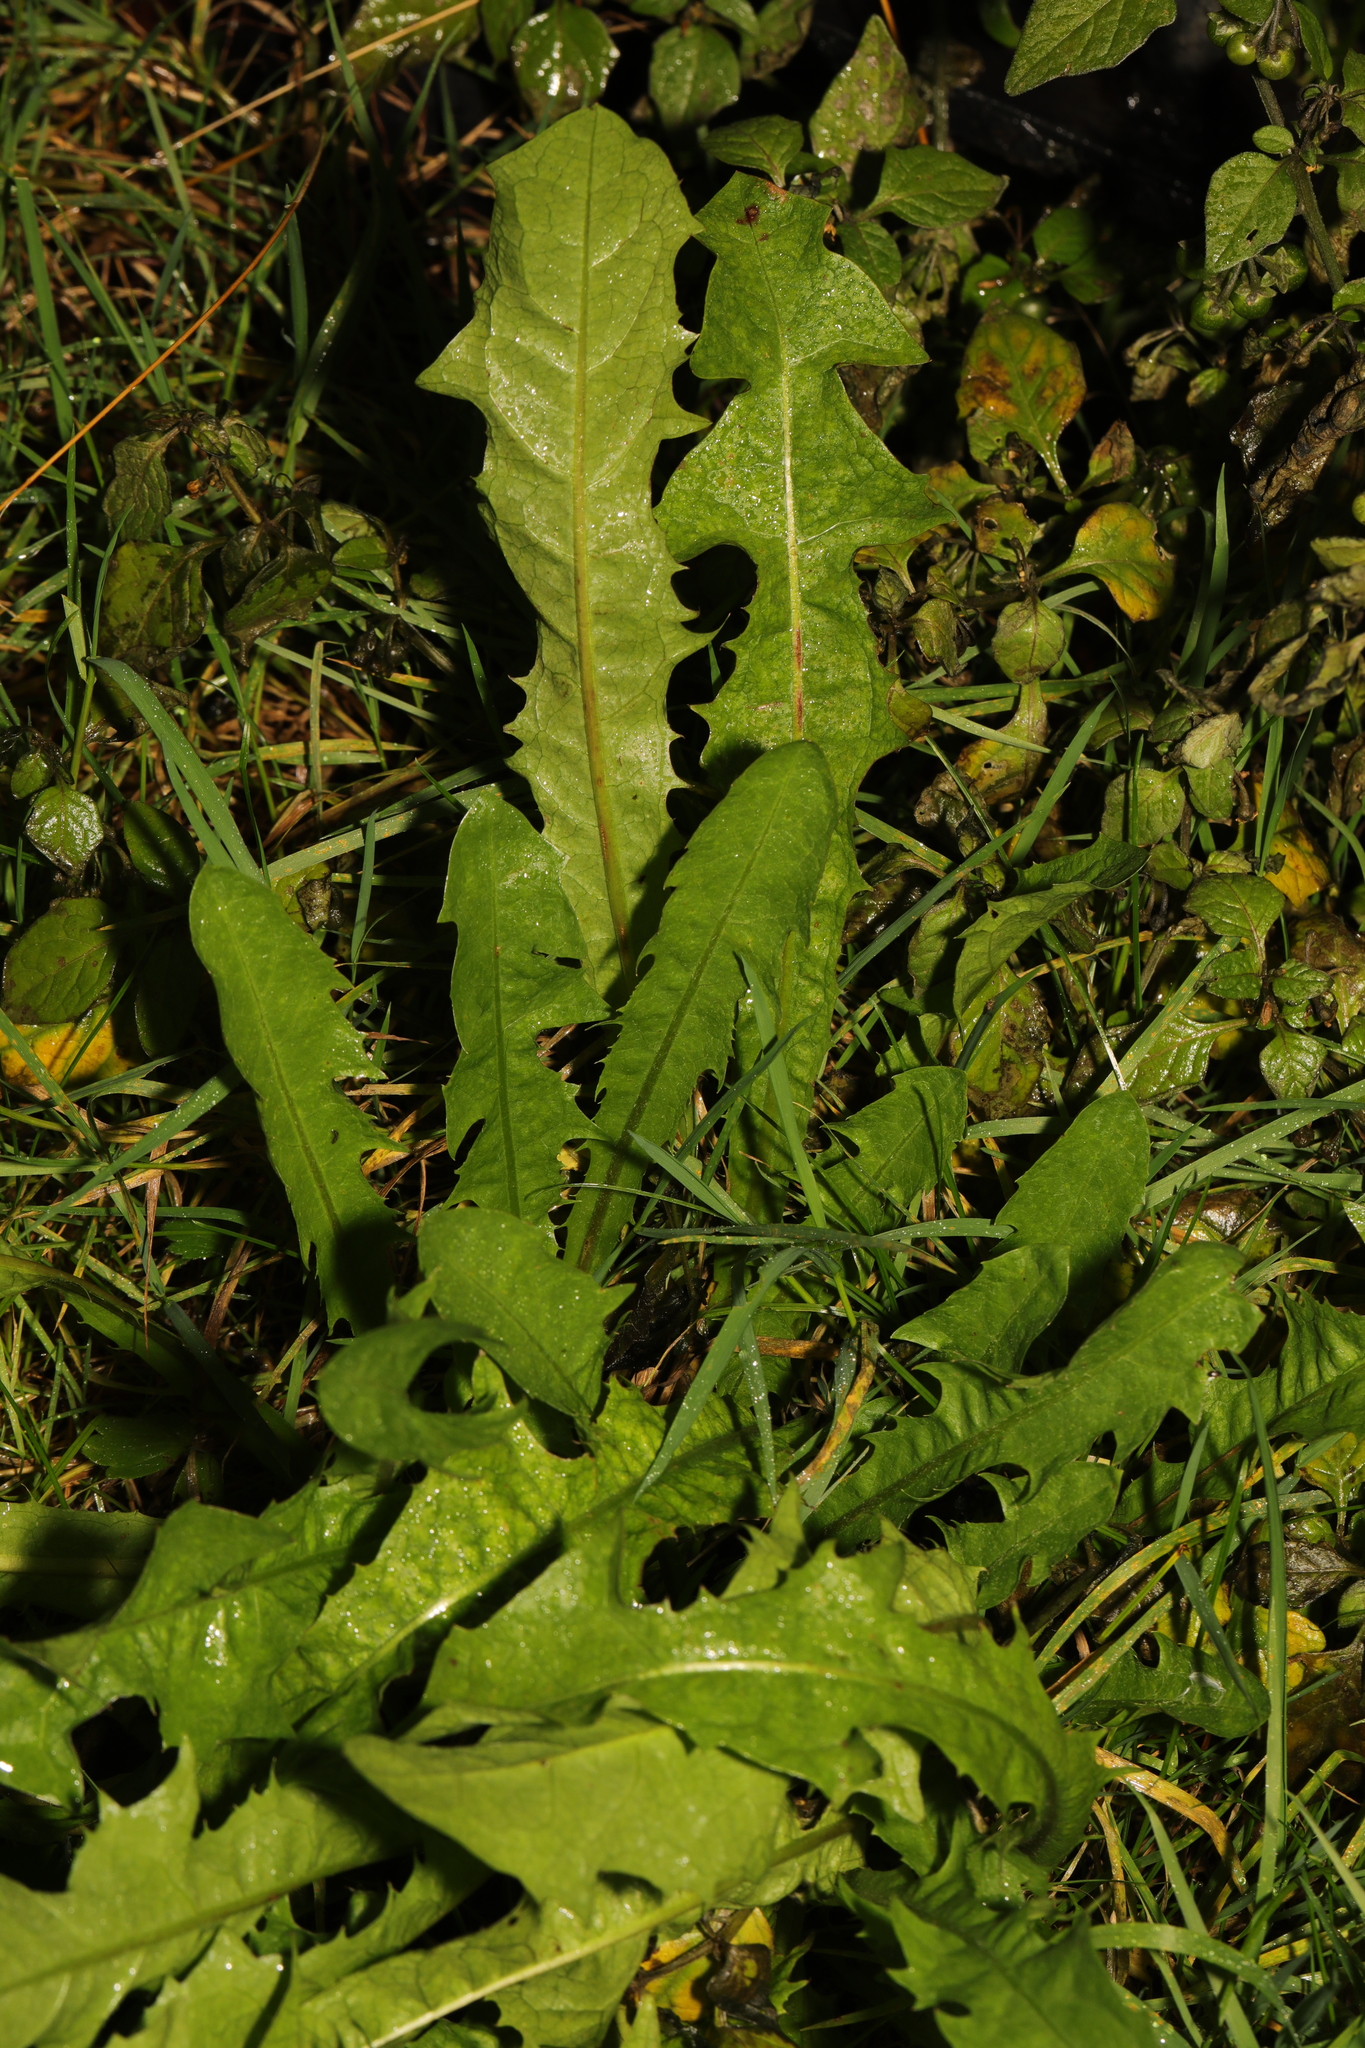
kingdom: Plantae
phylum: Tracheophyta
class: Magnoliopsida
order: Asterales
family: Asteraceae
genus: Taraxacum
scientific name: Taraxacum officinale
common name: Common dandelion
